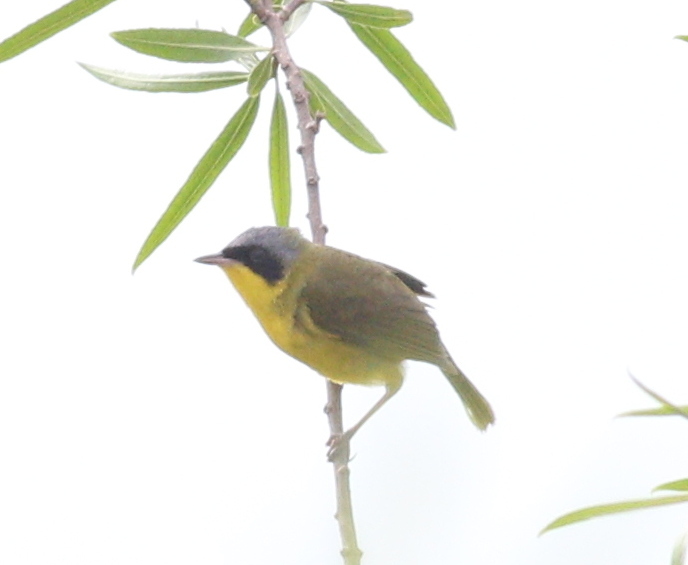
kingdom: Animalia
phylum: Chordata
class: Aves
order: Passeriformes
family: Parulidae
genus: Geothlypis
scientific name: Geothlypis velata
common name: Southern yellowthroat
